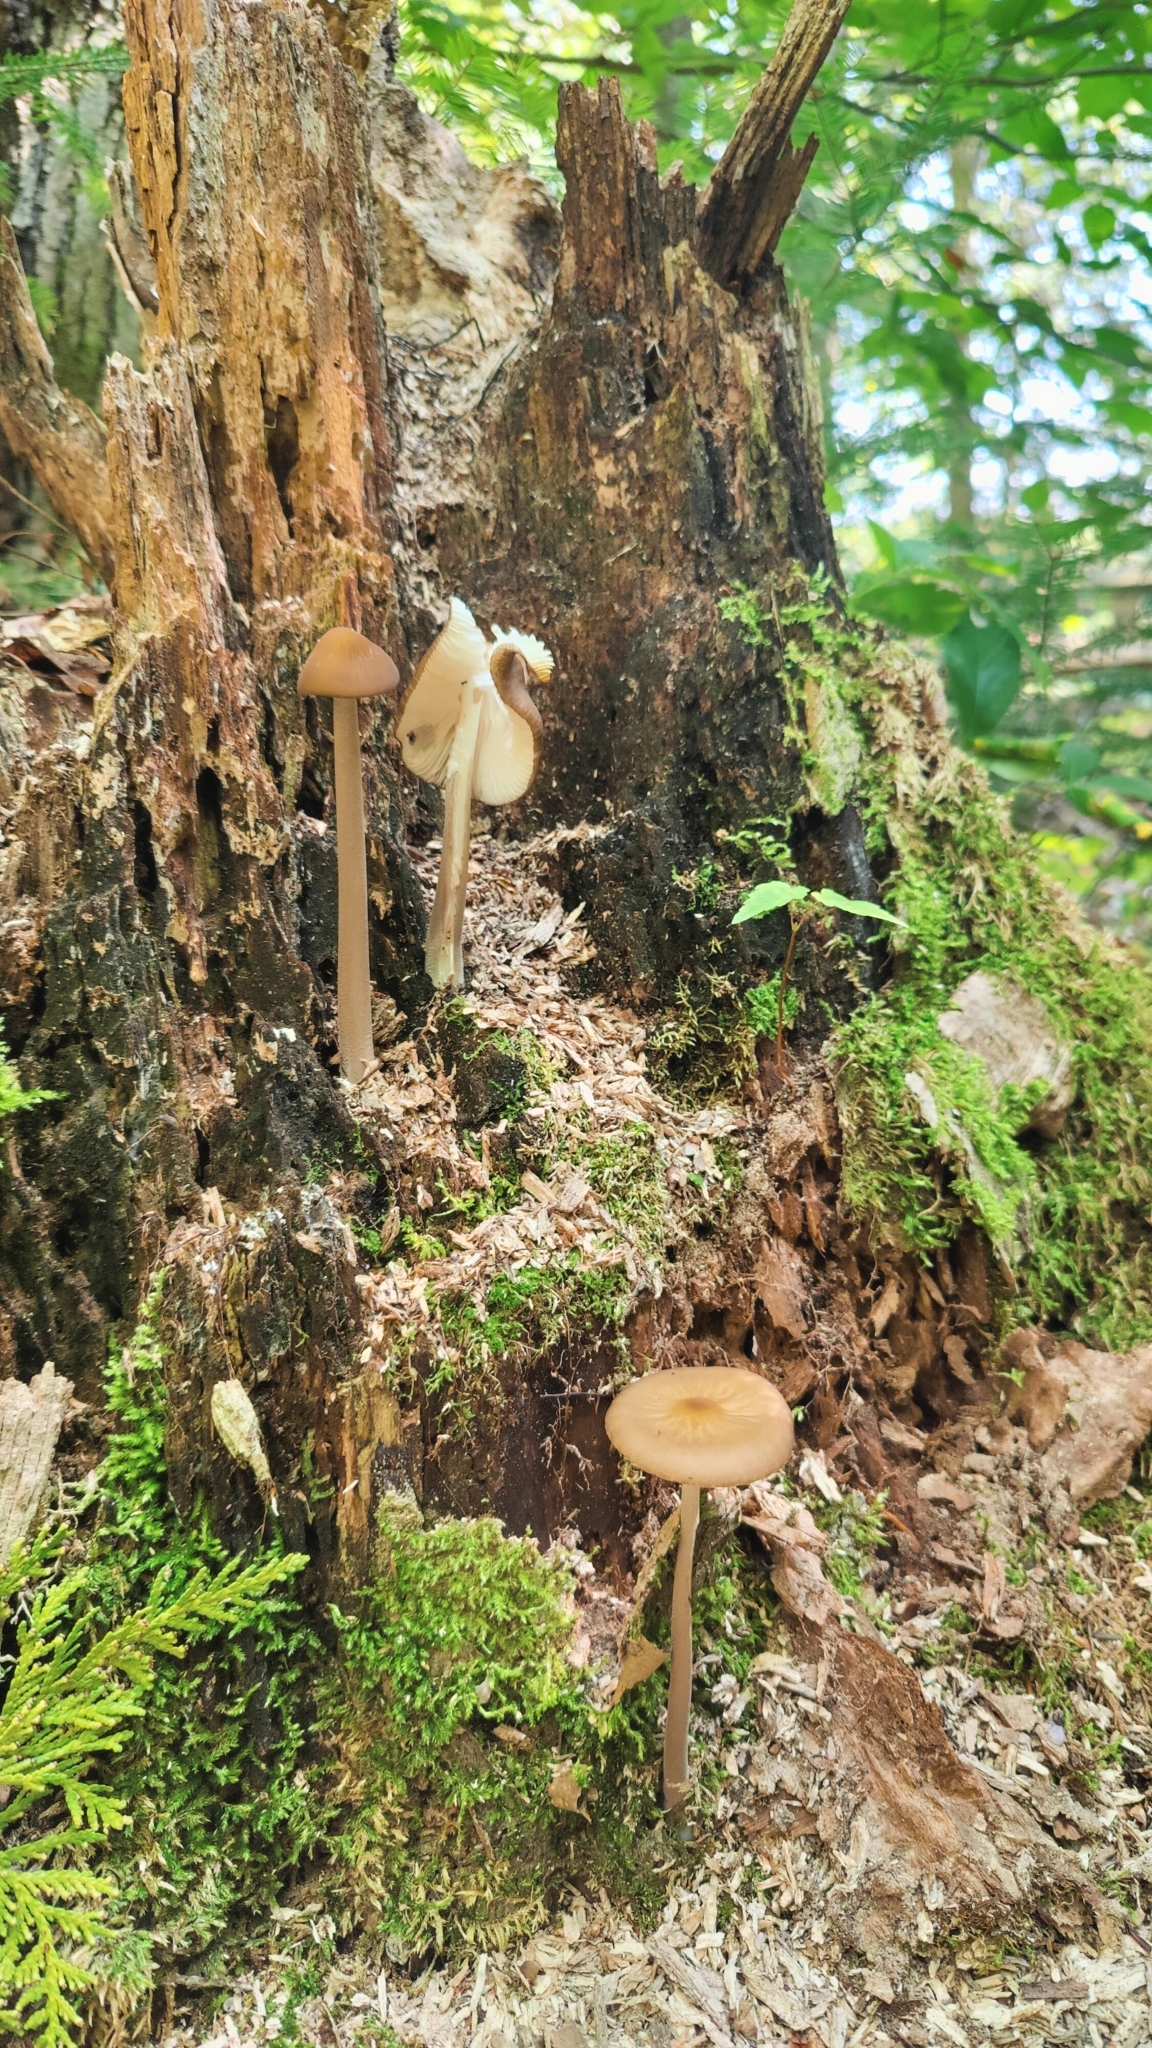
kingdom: Fungi
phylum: Basidiomycota
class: Agaricomycetes
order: Agaricales
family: Physalacriaceae
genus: Hymenopellis
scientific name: Hymenopellis furfuracea
